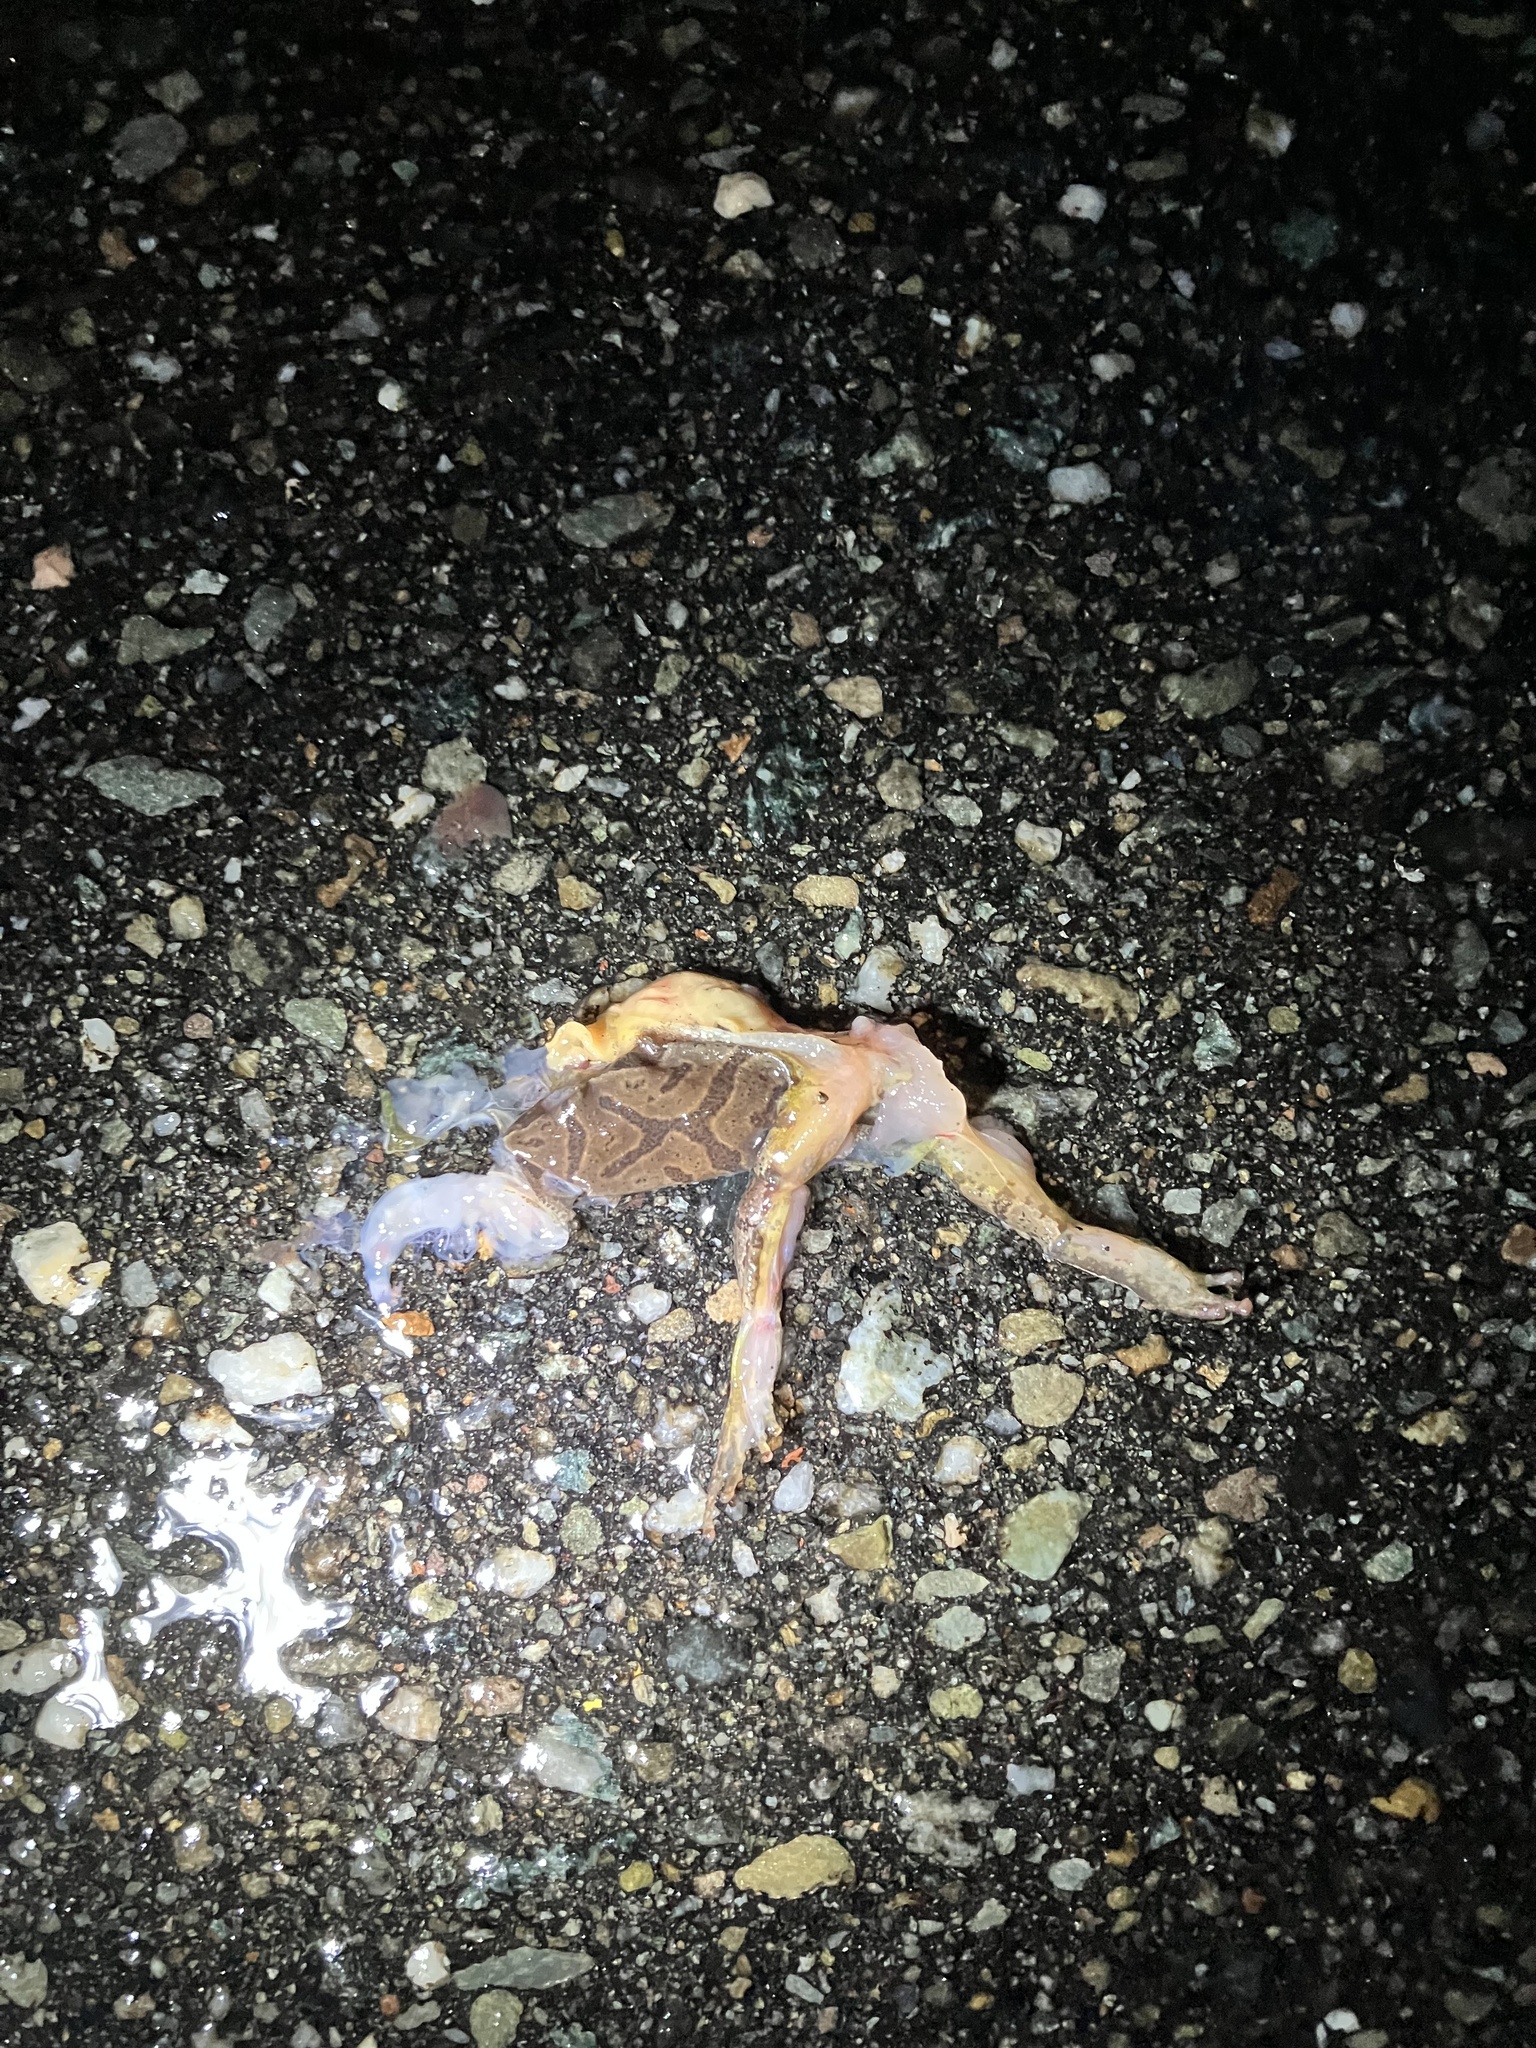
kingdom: Animalia
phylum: Chordata
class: Amphibia
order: Anura
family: Hylidae
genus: Pseudacris
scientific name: Pseudacris crucifer
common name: Spring peeper
